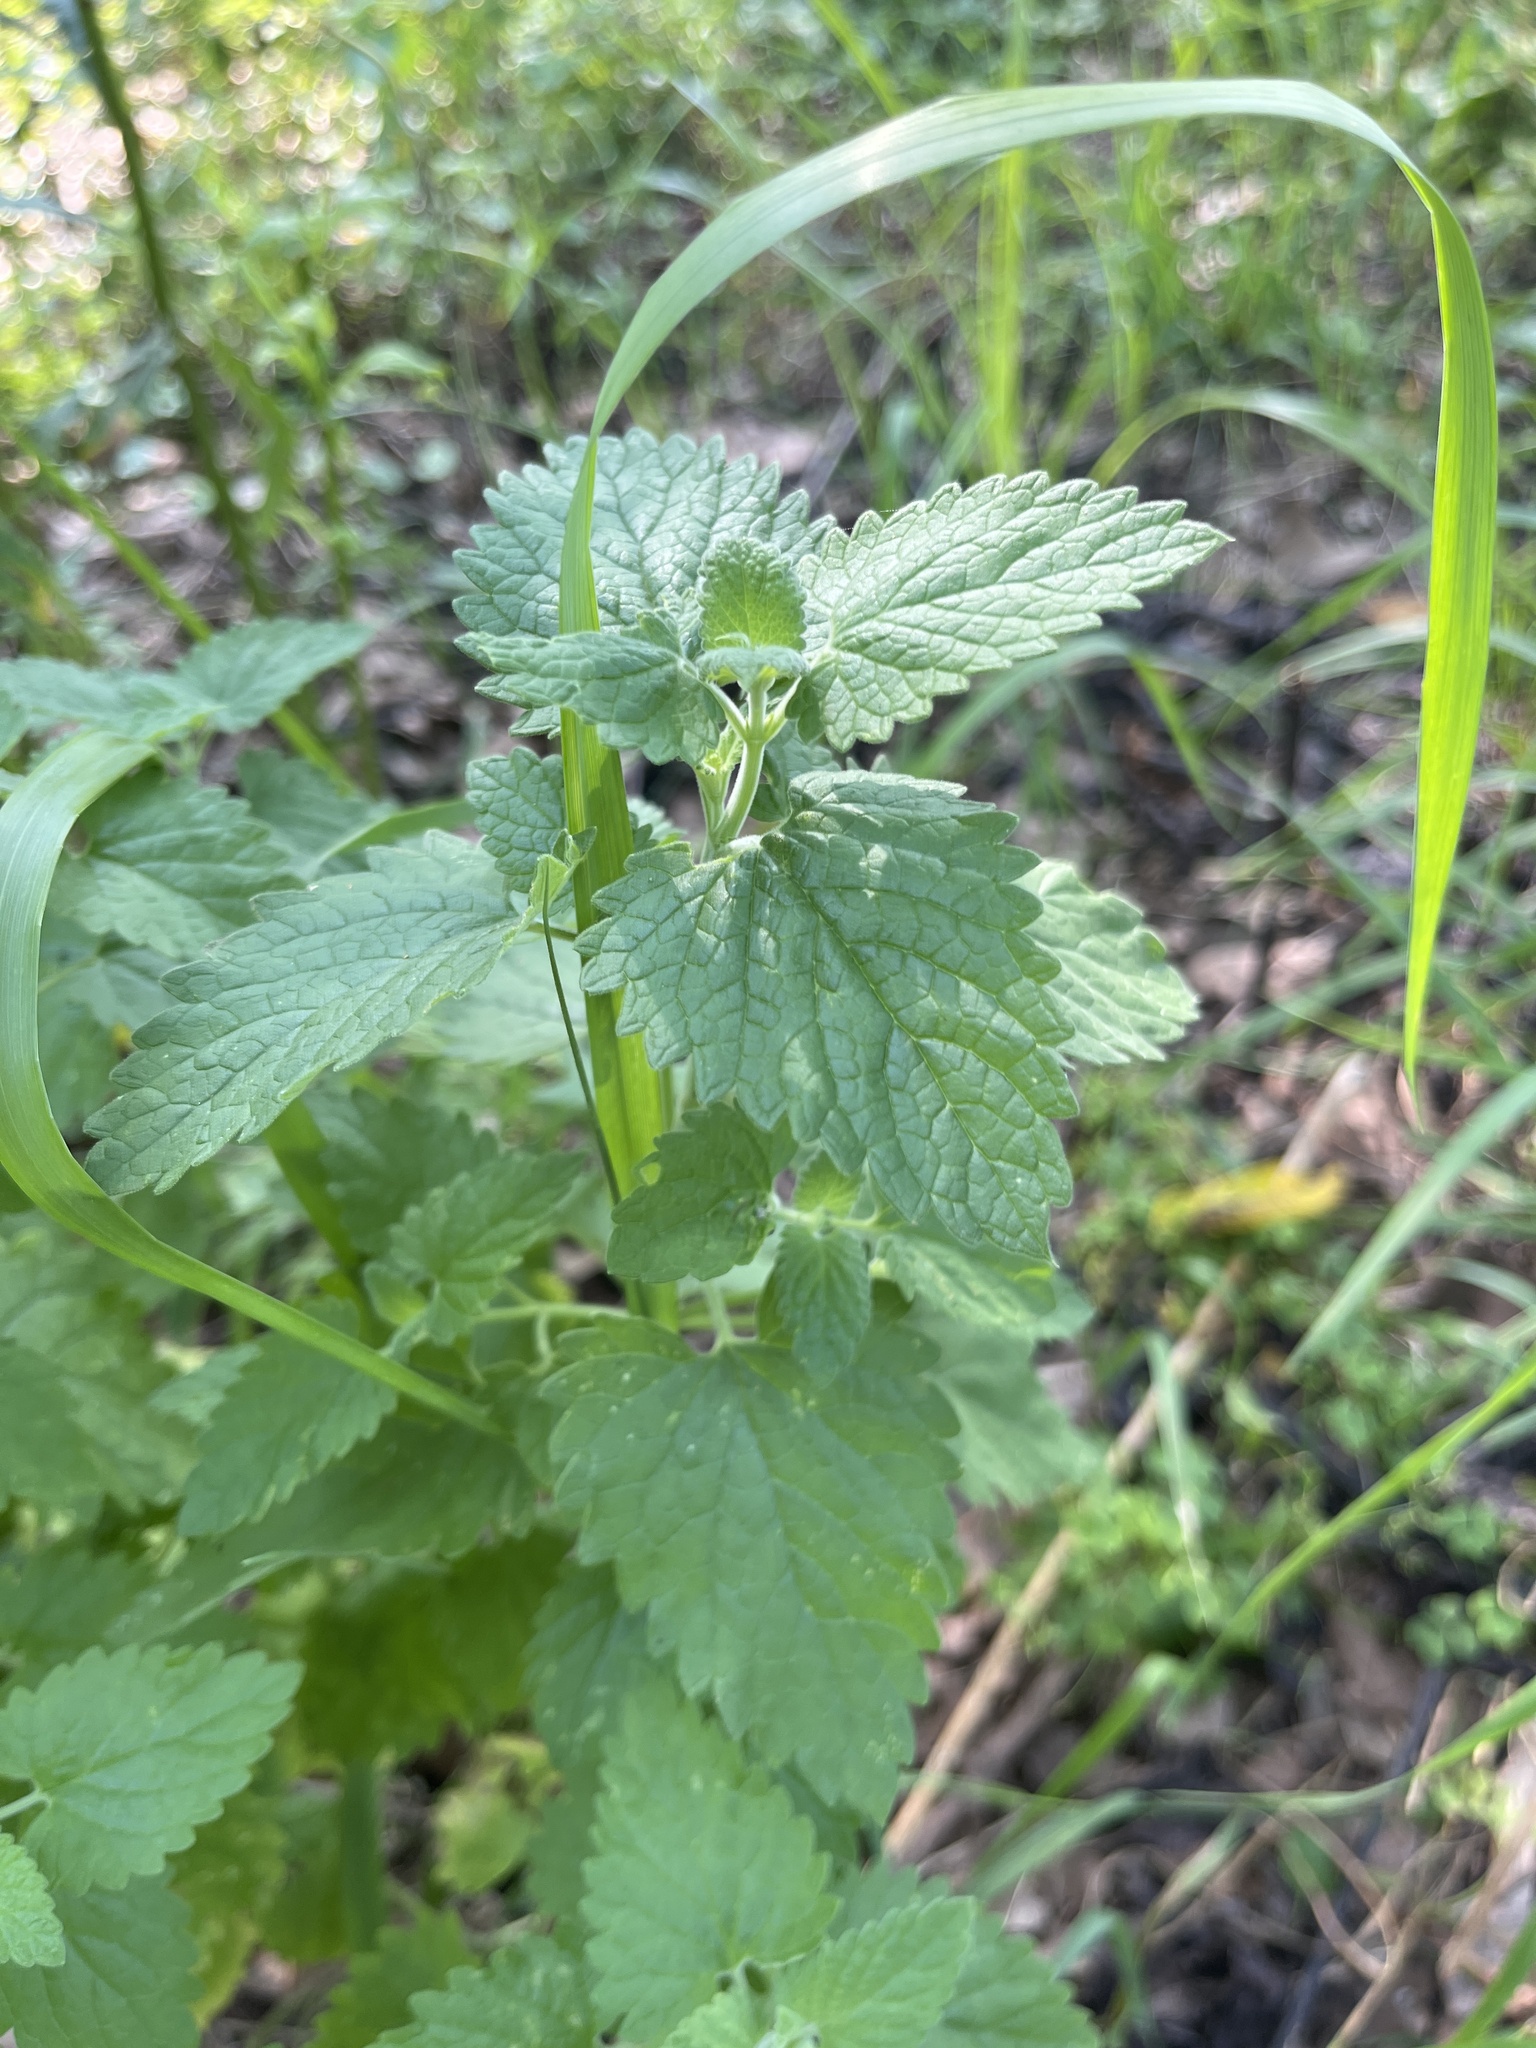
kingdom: Plantae
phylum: Tracheophyta
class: Magnoliopsida
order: Lamiales
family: Lamiaceae
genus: Nepeta
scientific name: Nepeta cataria
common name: Catnip
